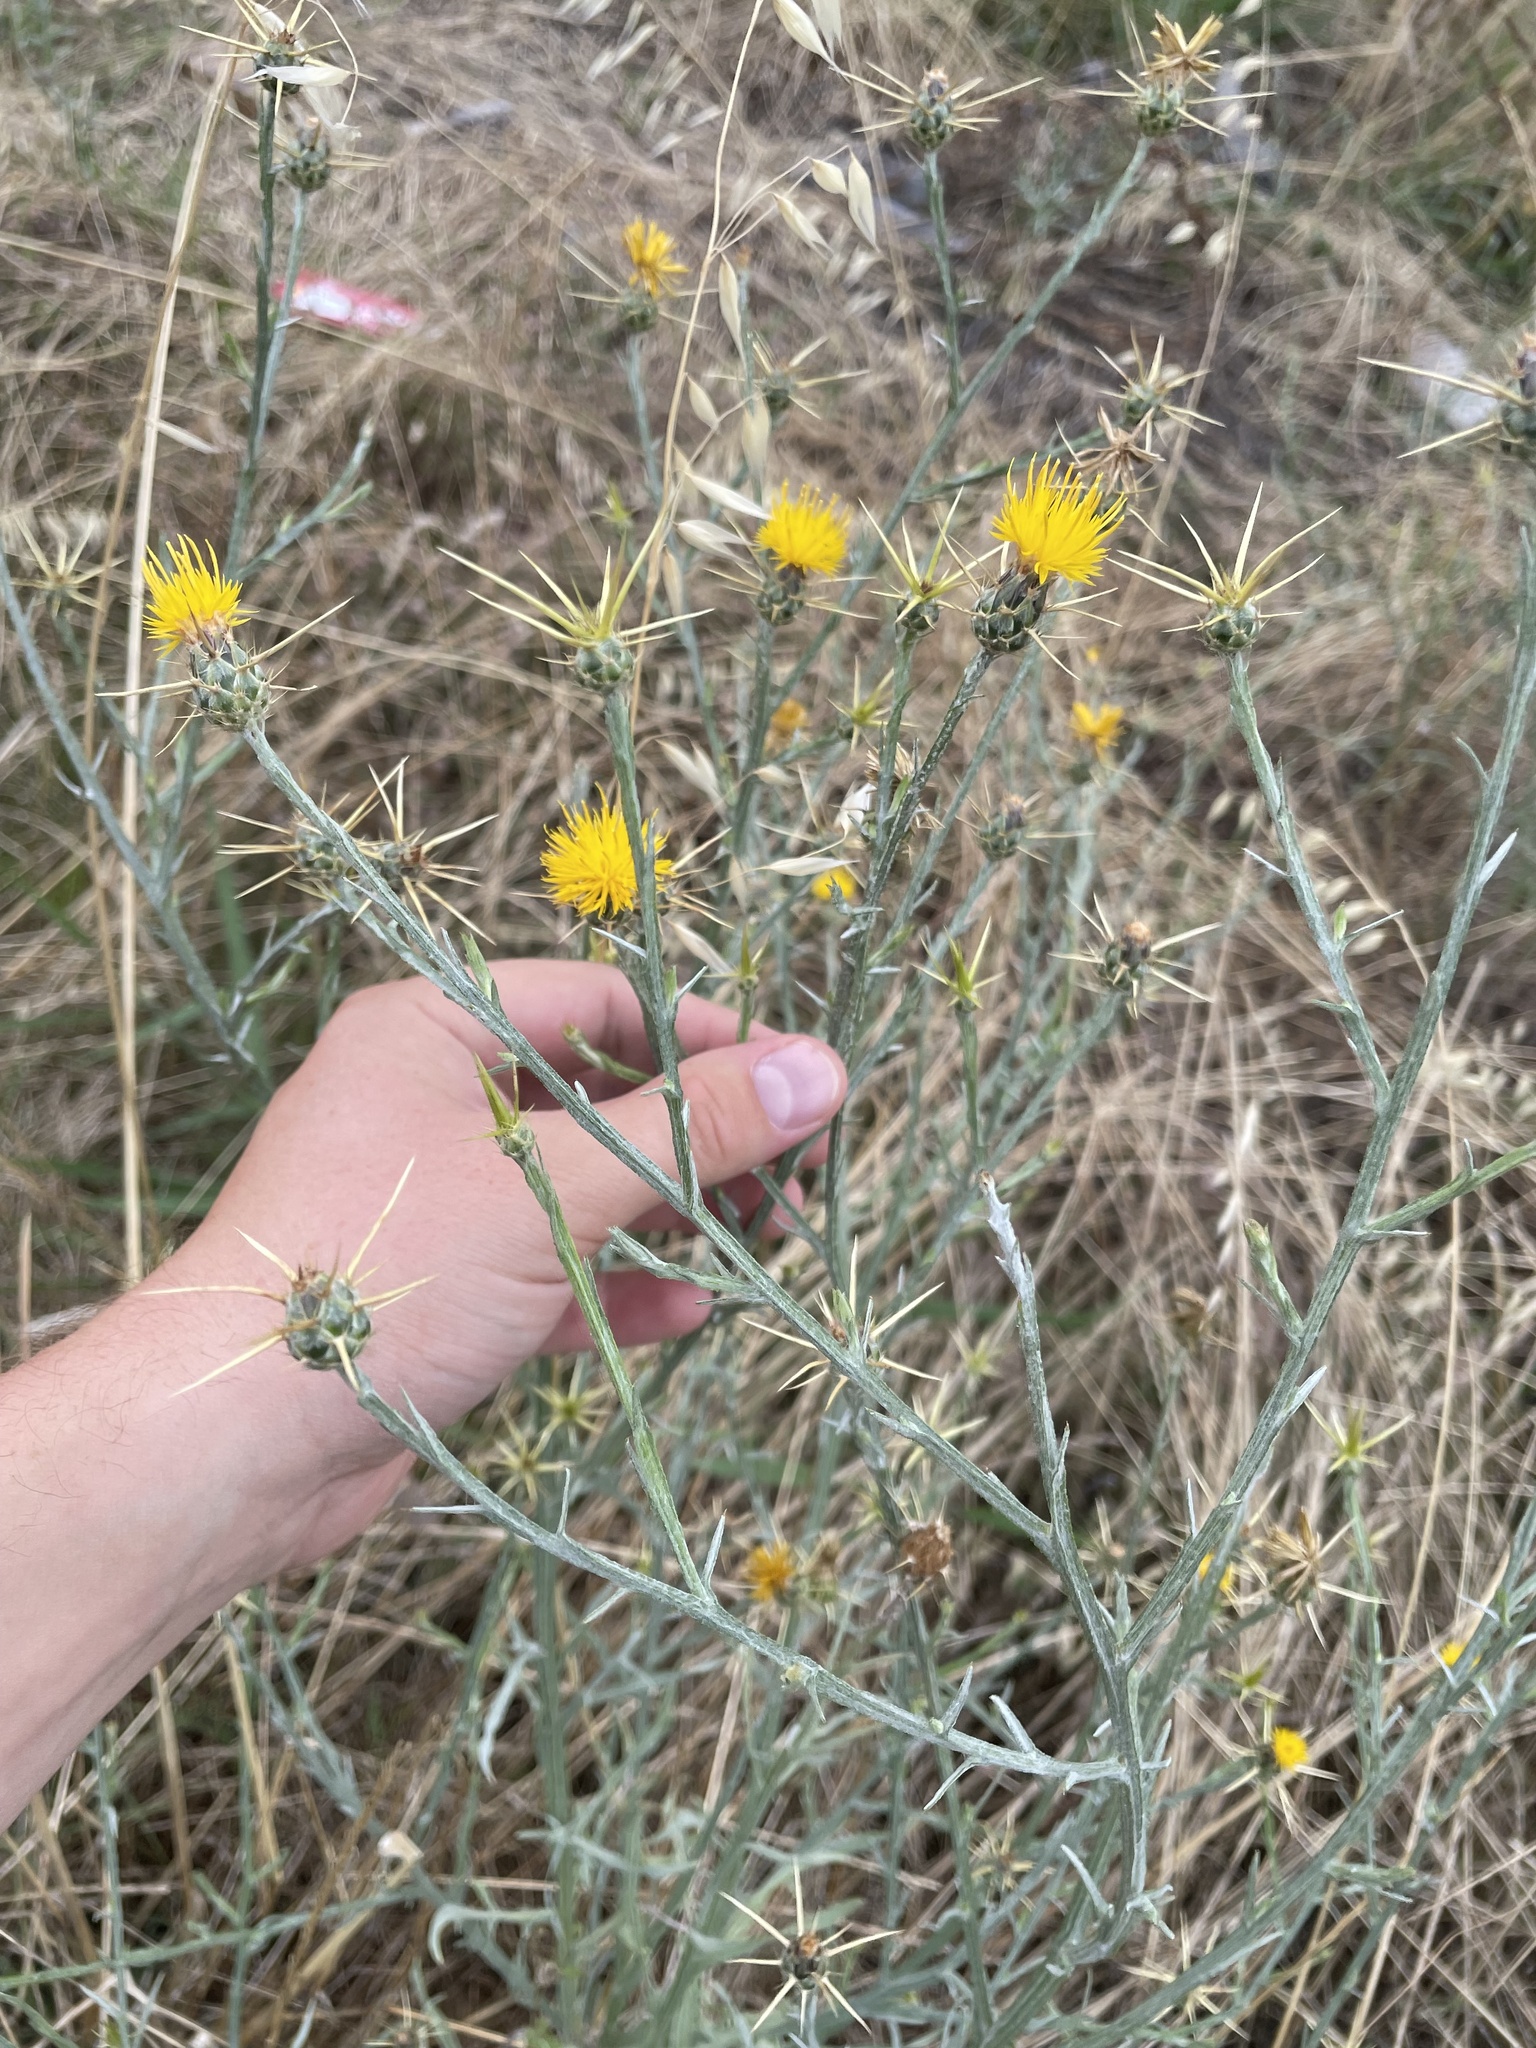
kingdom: Plantae
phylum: Tracheophyta
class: Magnoliopsida
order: Asterales
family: Asteraceae
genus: Centaurea
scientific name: Centaurea solstitialis
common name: Yellow star-thistle
